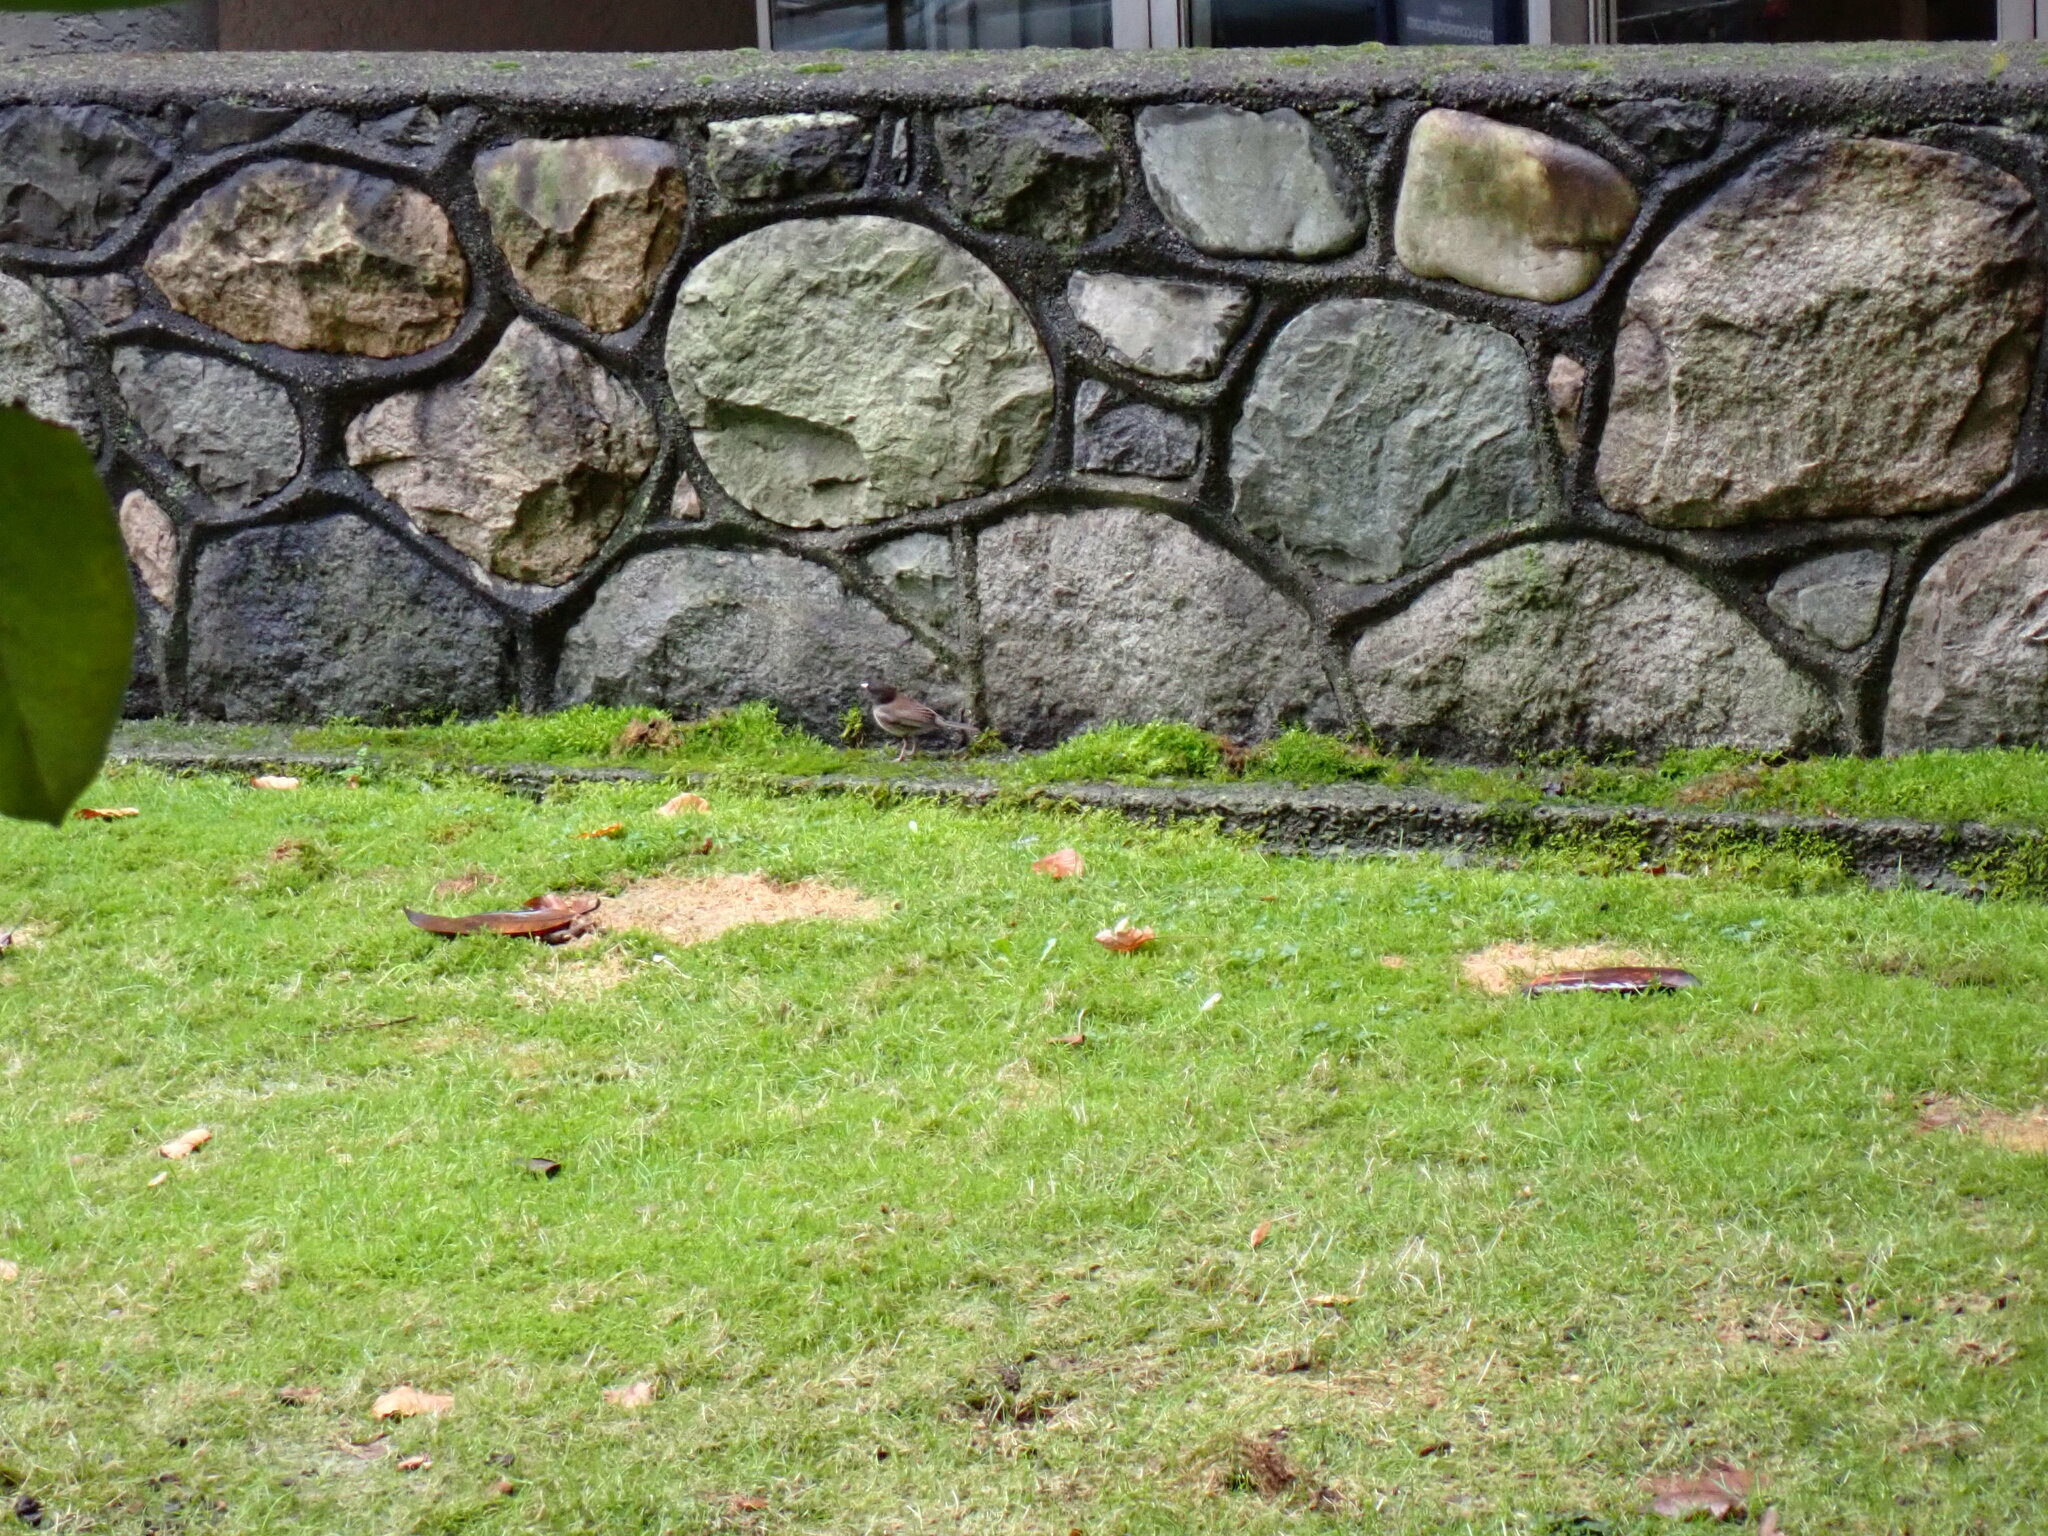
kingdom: Animalia
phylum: Chordata
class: Aves
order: Passeriformes
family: Passerellidae
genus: Junco
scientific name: Junco hyemalis
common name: Dark-eyed junco
